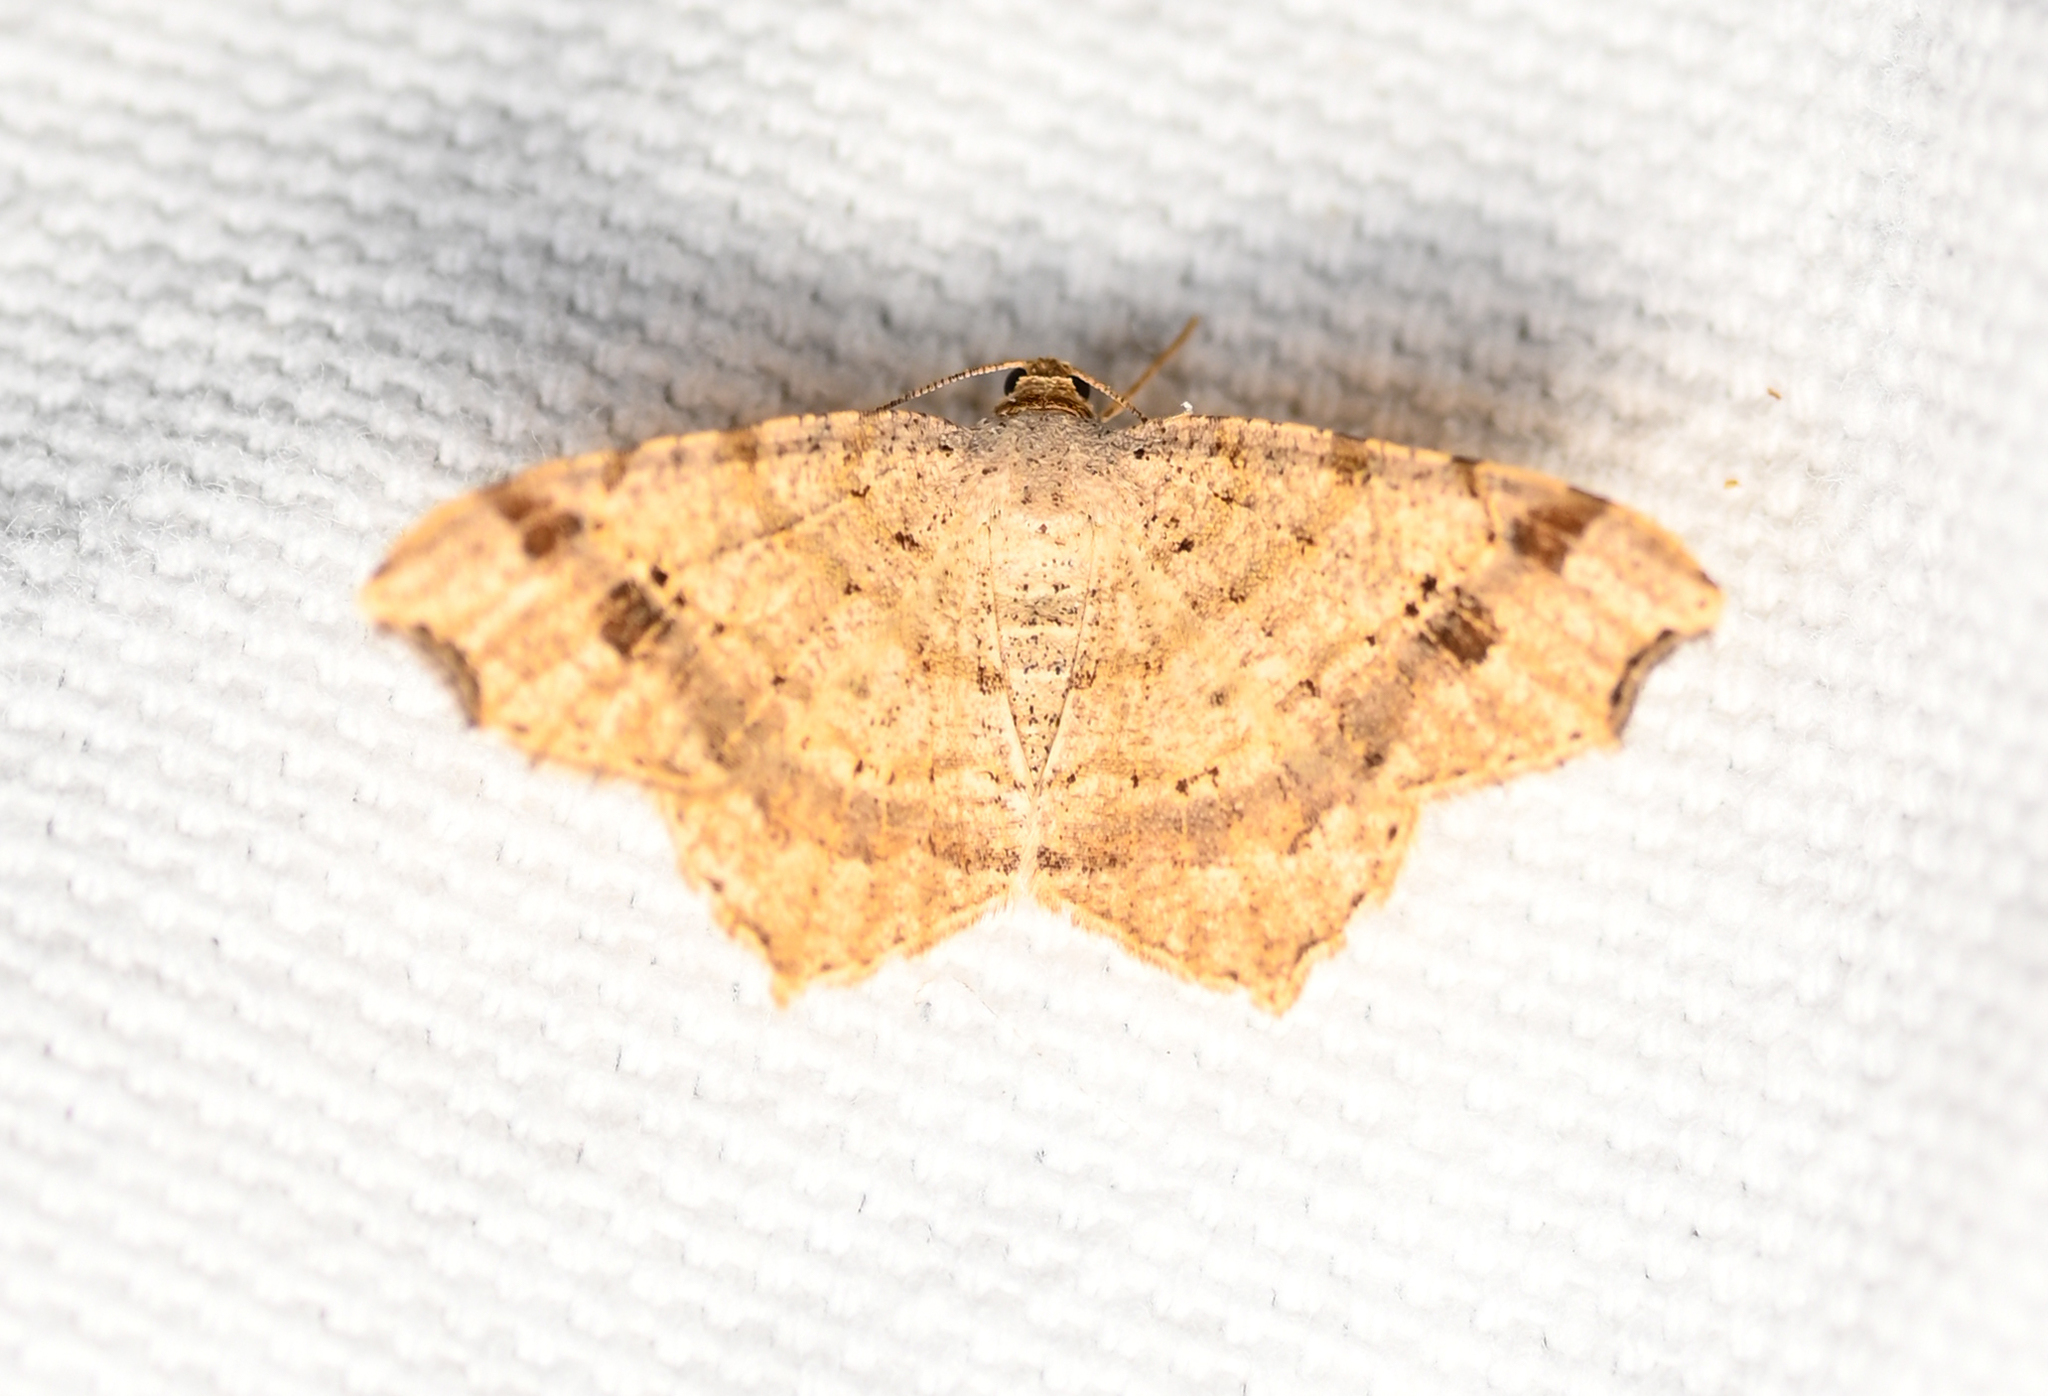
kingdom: Animalia
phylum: Arthropoda
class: Insecta
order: Lepidoptera
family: Geometridae
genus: Macaria
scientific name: Macaria aemulataria
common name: Common angle
